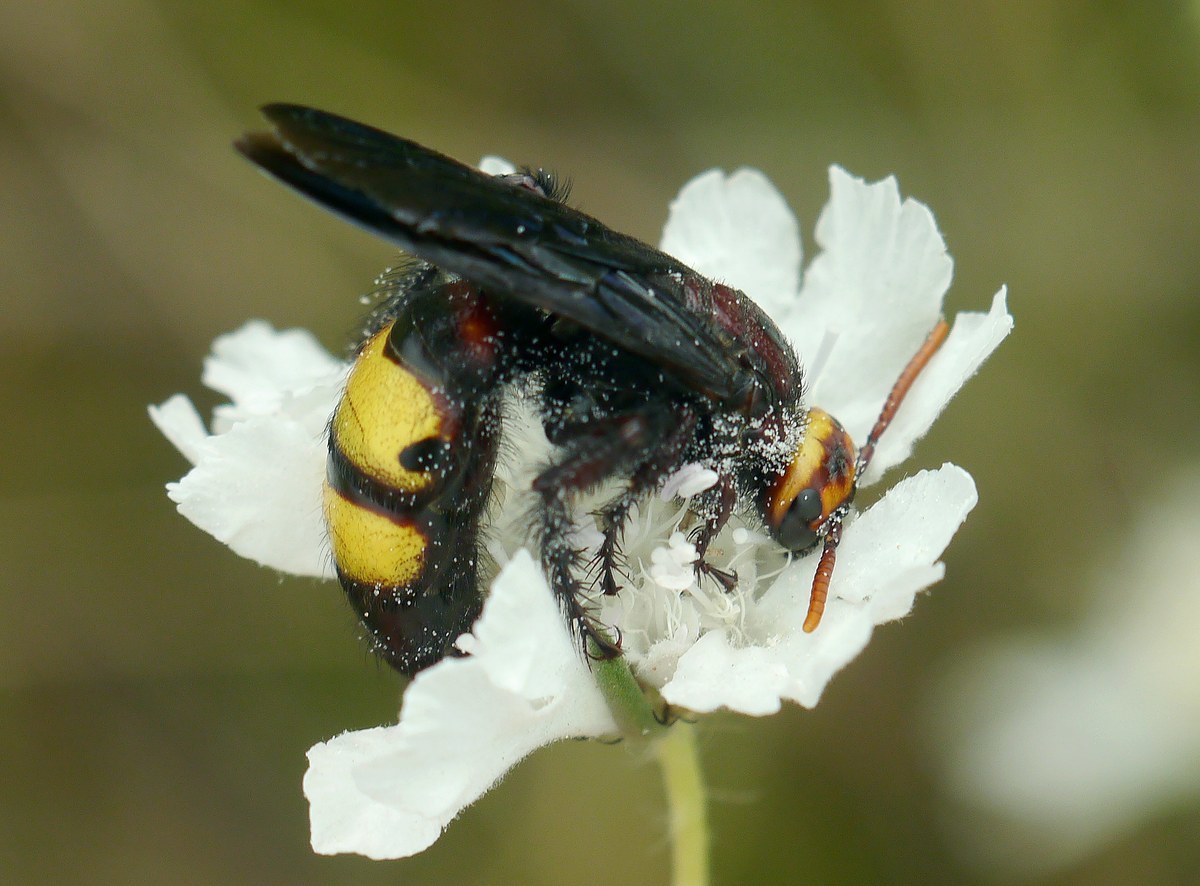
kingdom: Animalia
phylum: Arthropoda
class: Insecta
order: Hymenoptera
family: Vespidae
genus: Vespa
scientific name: Vespa galbula
